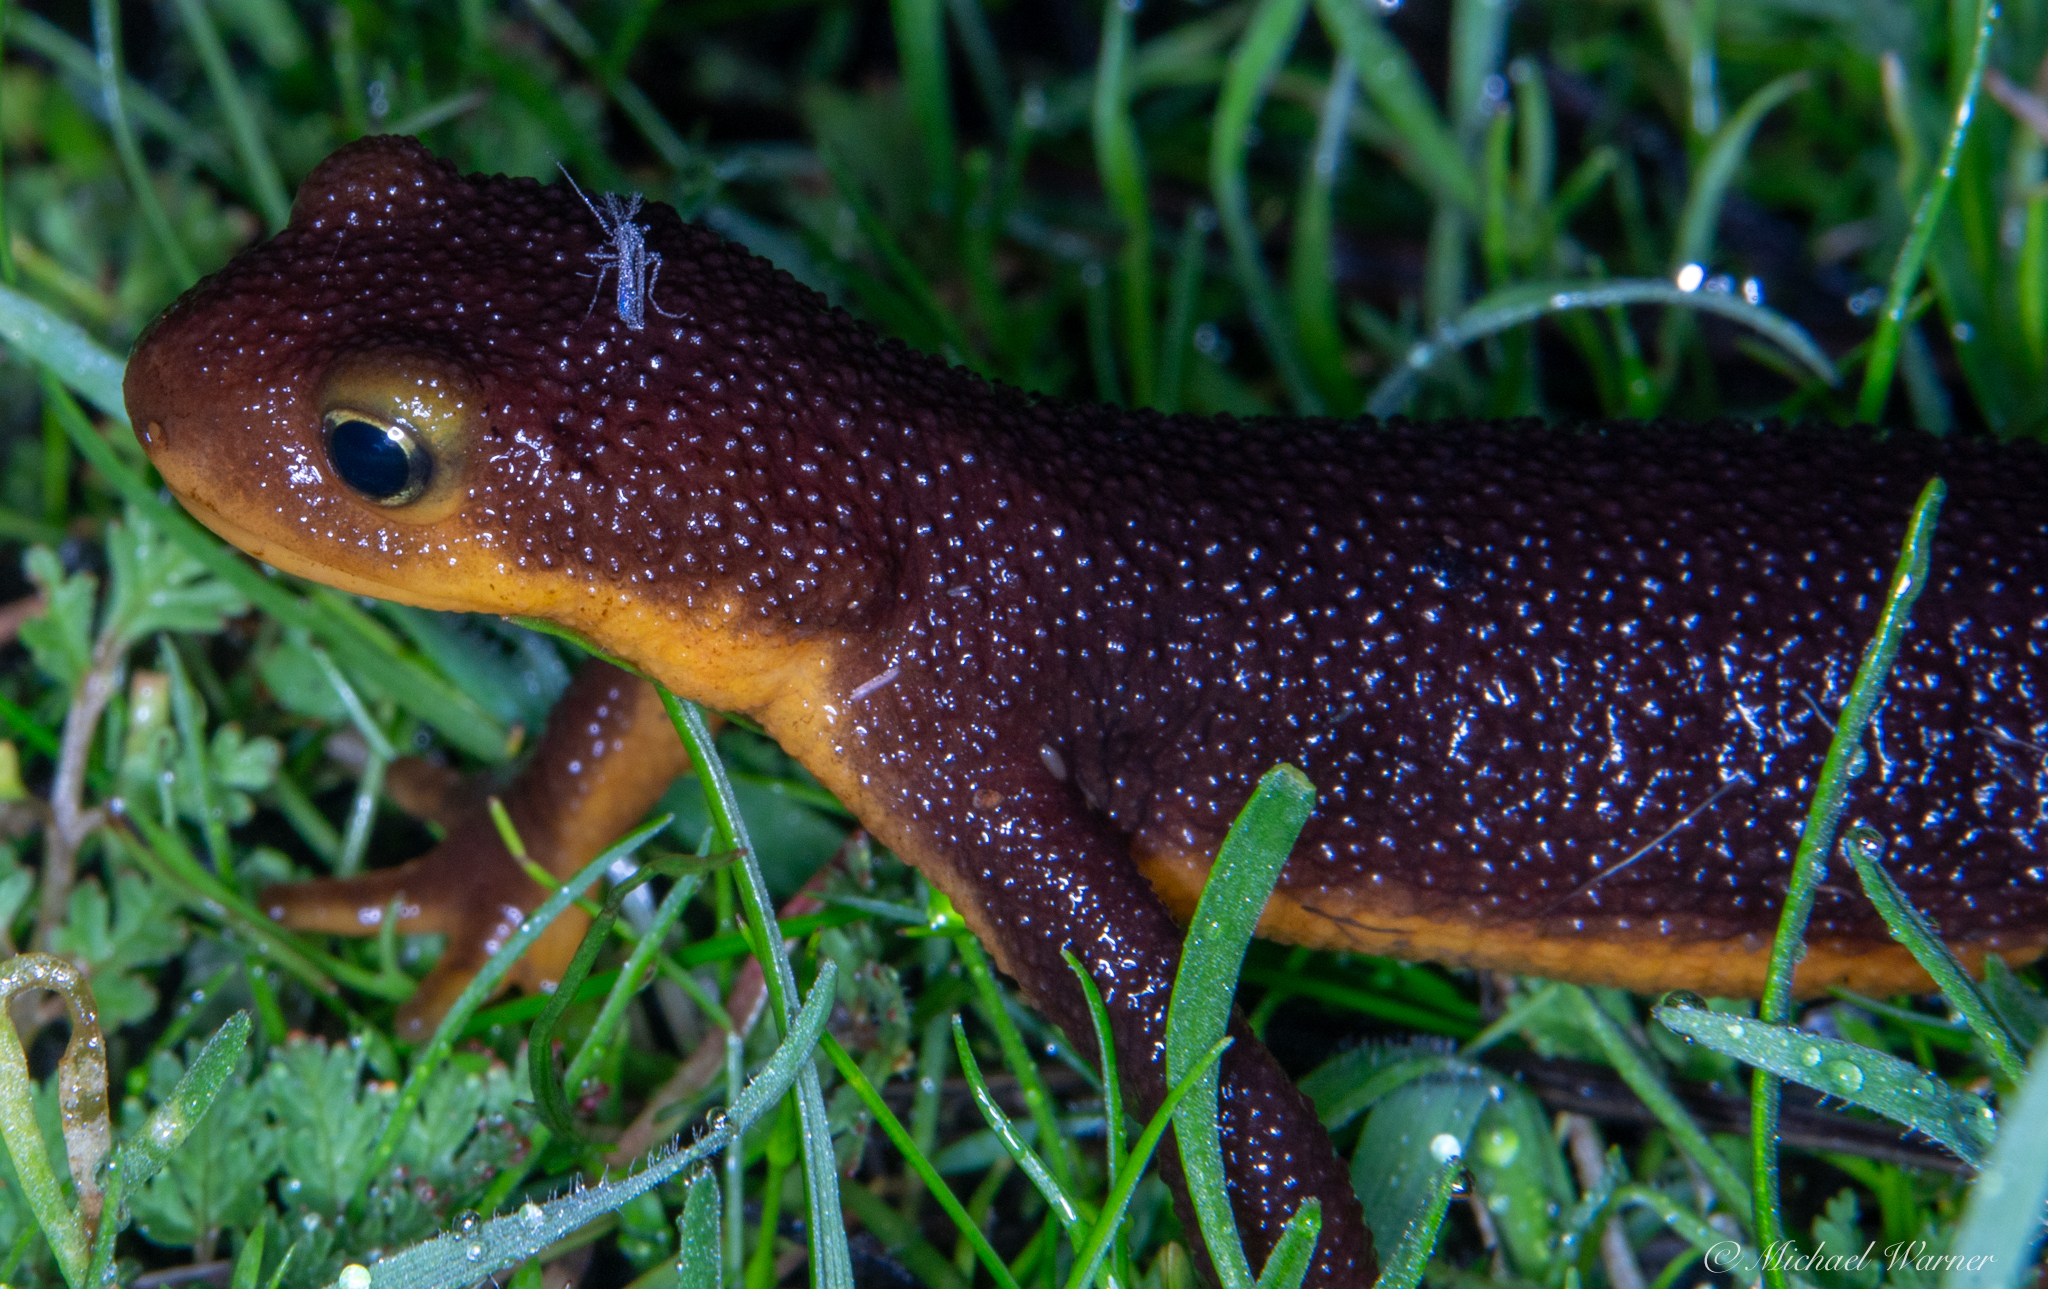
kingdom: Animalia
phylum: Chordata
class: Amphibia
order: Caudata
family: Salamandridae
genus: Taricha
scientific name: Taricha torosa
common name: California newt
